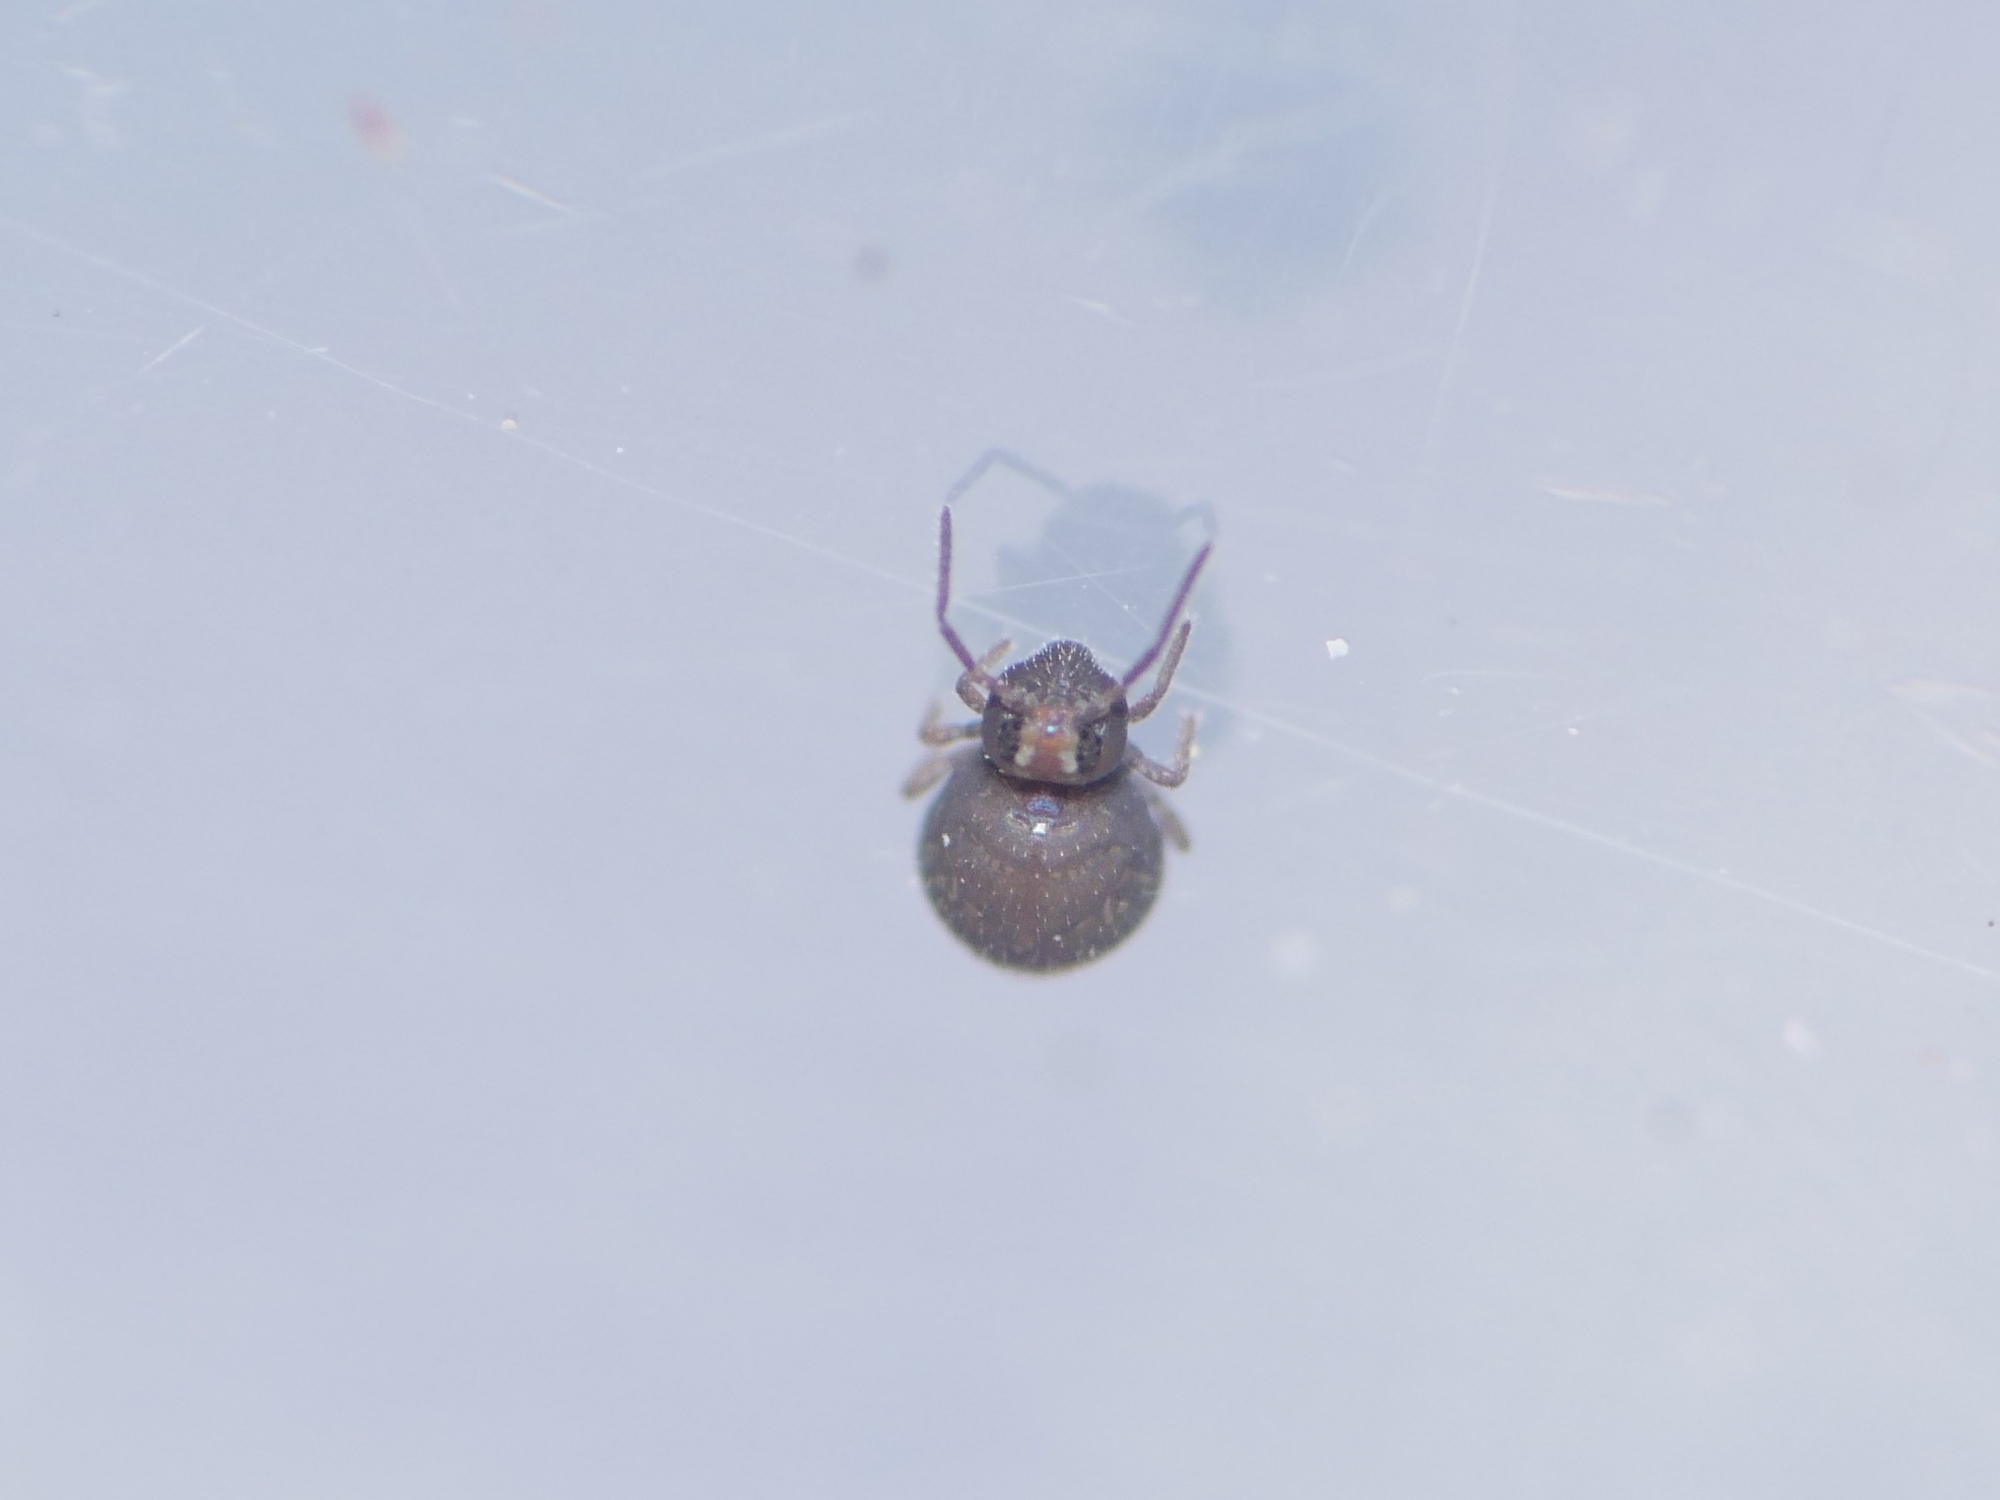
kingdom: Animalia
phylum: Arthropoda
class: Collembola
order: Symphypleona
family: Bourletiellidae
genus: Bourletiella
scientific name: Bourletiella hortensis
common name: Garden springtail
